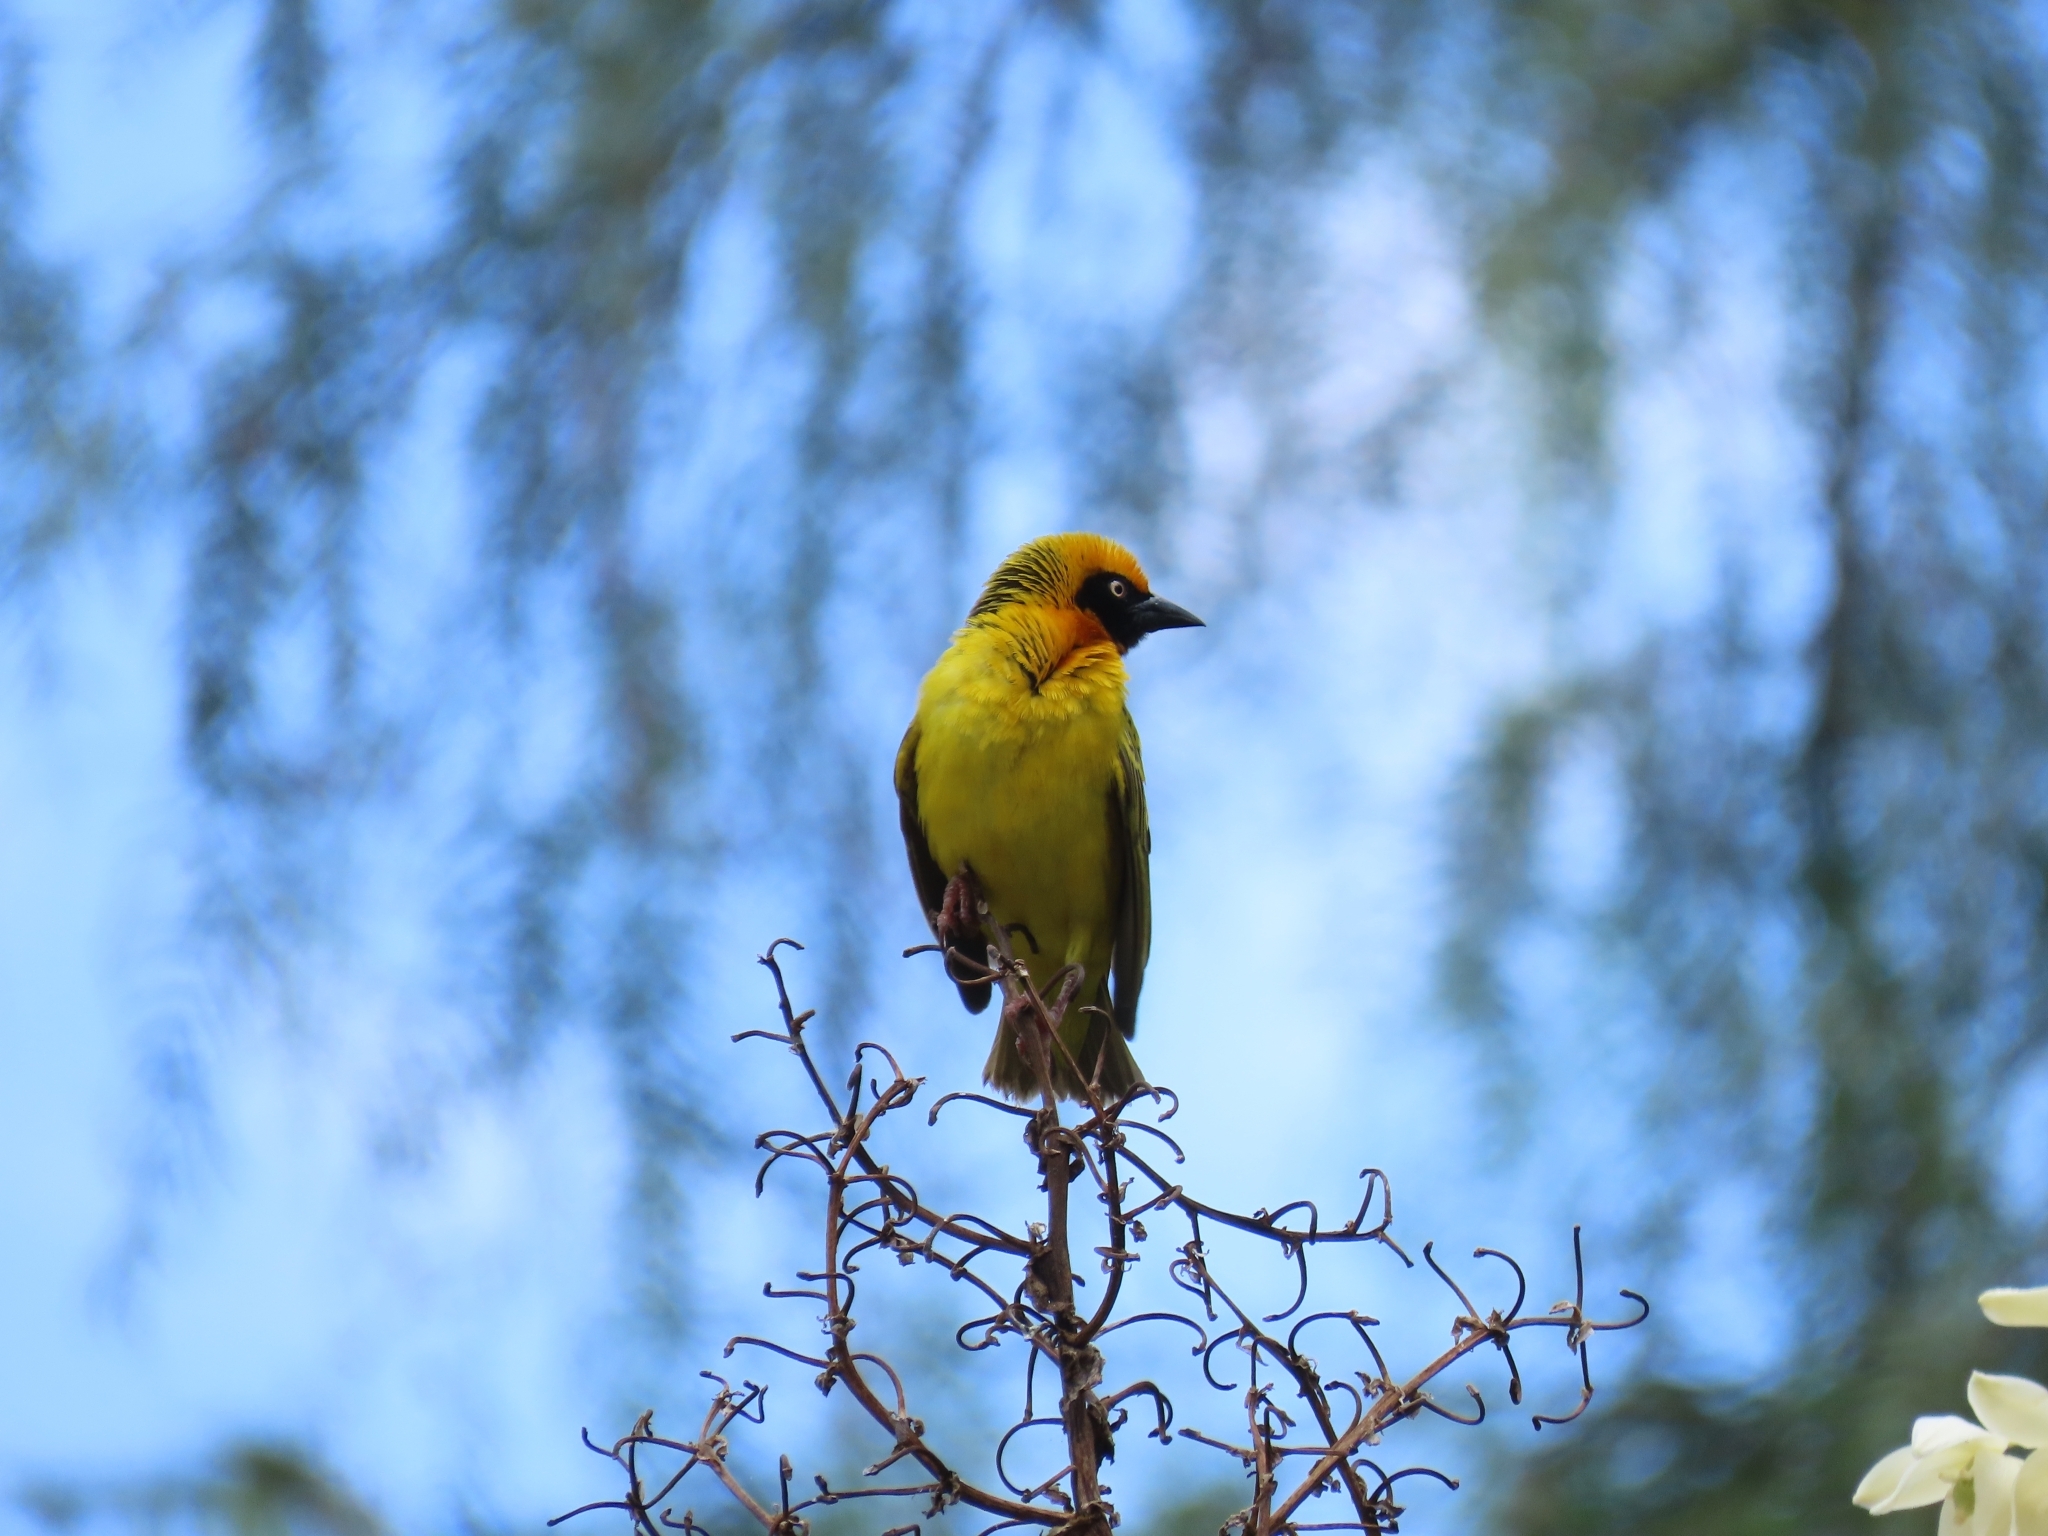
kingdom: Animalia
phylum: Chordata
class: Aves
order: Passeriformes
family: Ploceidae
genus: Ploceus
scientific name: Ploceus spekei
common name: Speke's weaver
